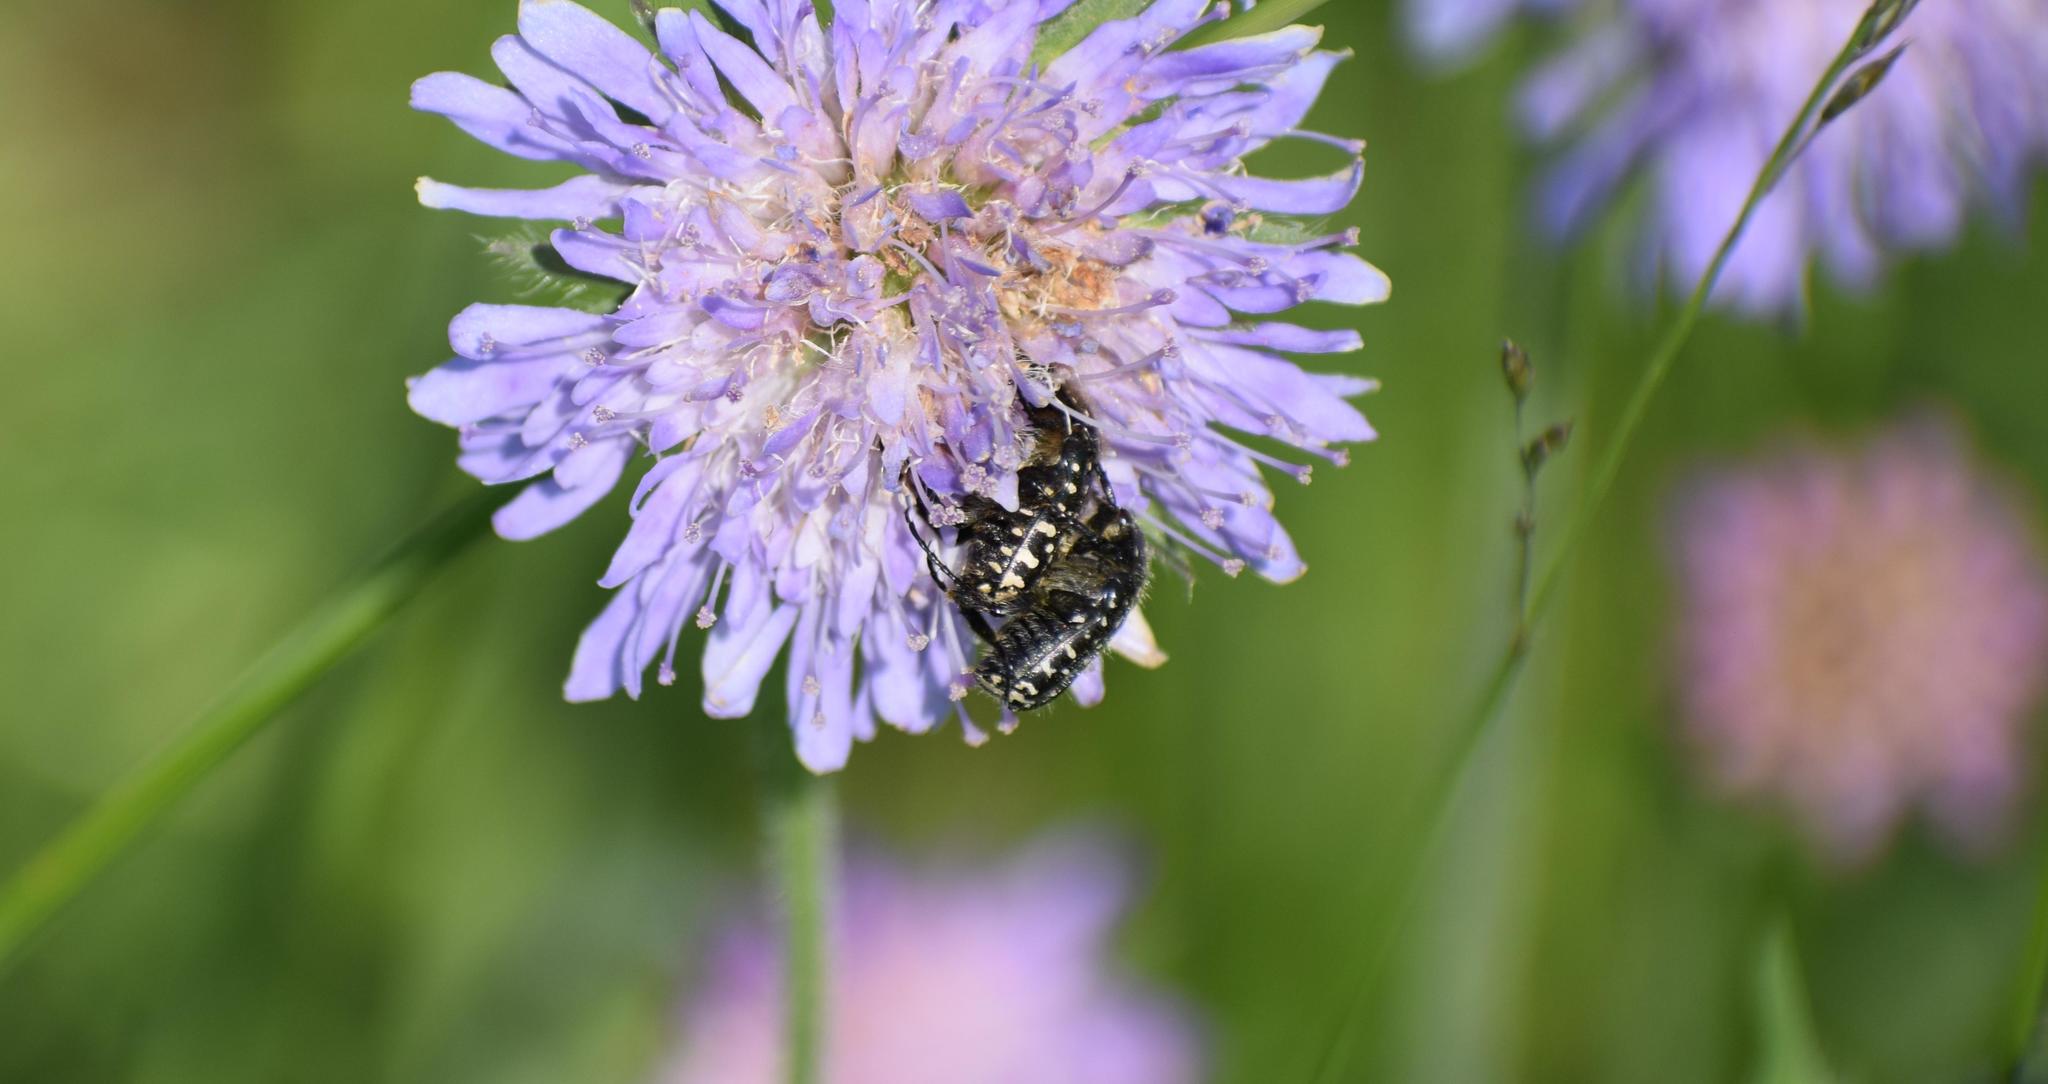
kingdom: Animalia
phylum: Arthropoda
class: Insecta
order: Coleoptera
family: Scarabaeidae
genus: Oxythyrea
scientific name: Oxythyrea funesta
